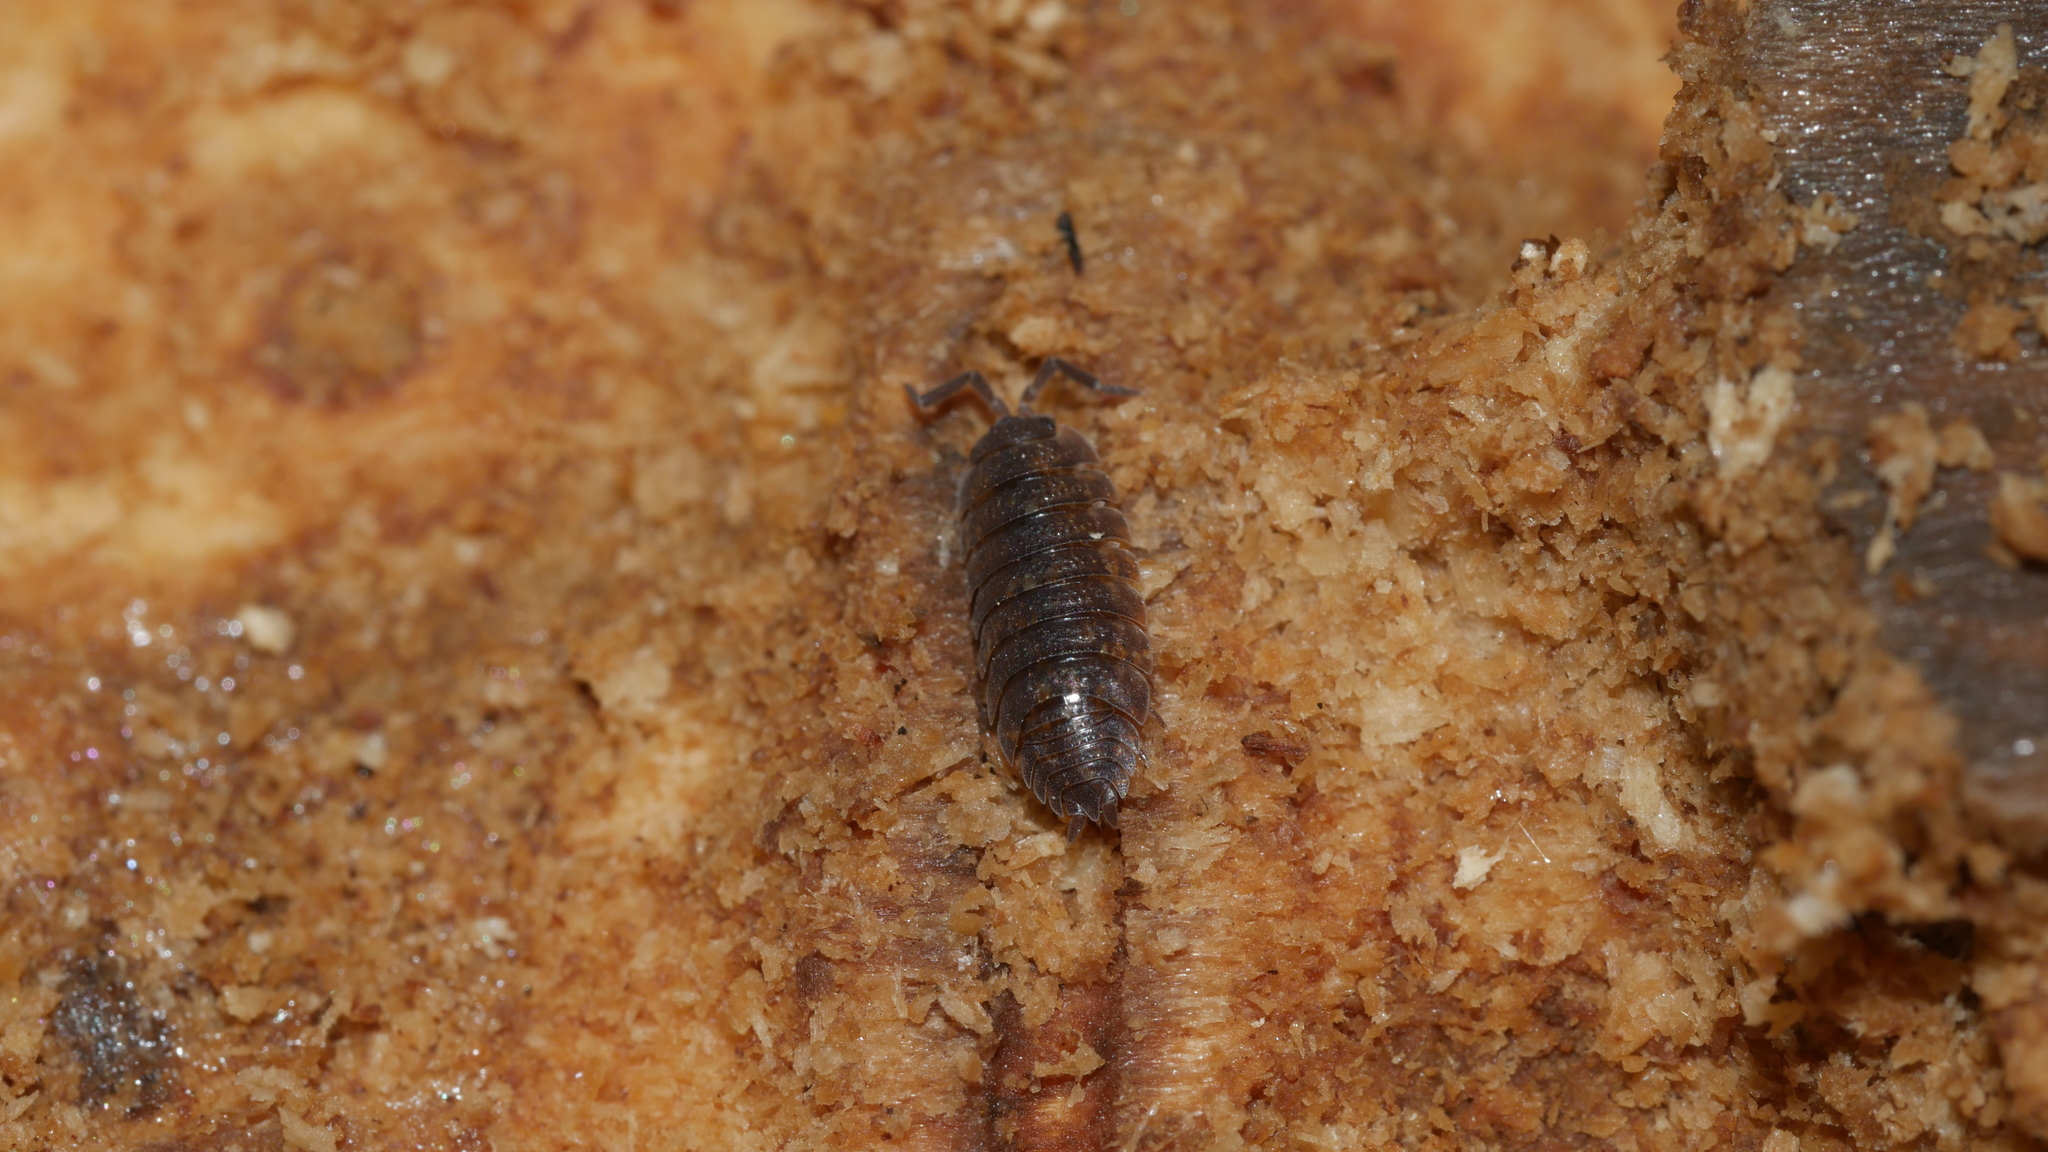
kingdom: Animalia
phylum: Arthropoda
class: Malacostraca
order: Isopoda
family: Porcellionidae
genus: Porcellio
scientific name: Porcellio scaber
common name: Common rough woodlouse
